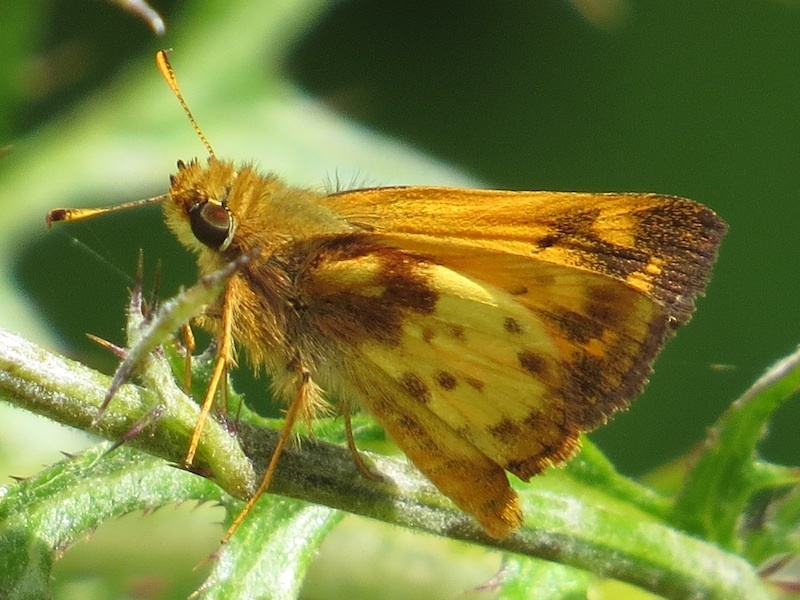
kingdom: Animalia
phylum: Arthropoda
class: Insecta
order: Lepidoptera
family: Hesperiidae
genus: Lon
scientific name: Lon zabulon
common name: Zabulon skipper
